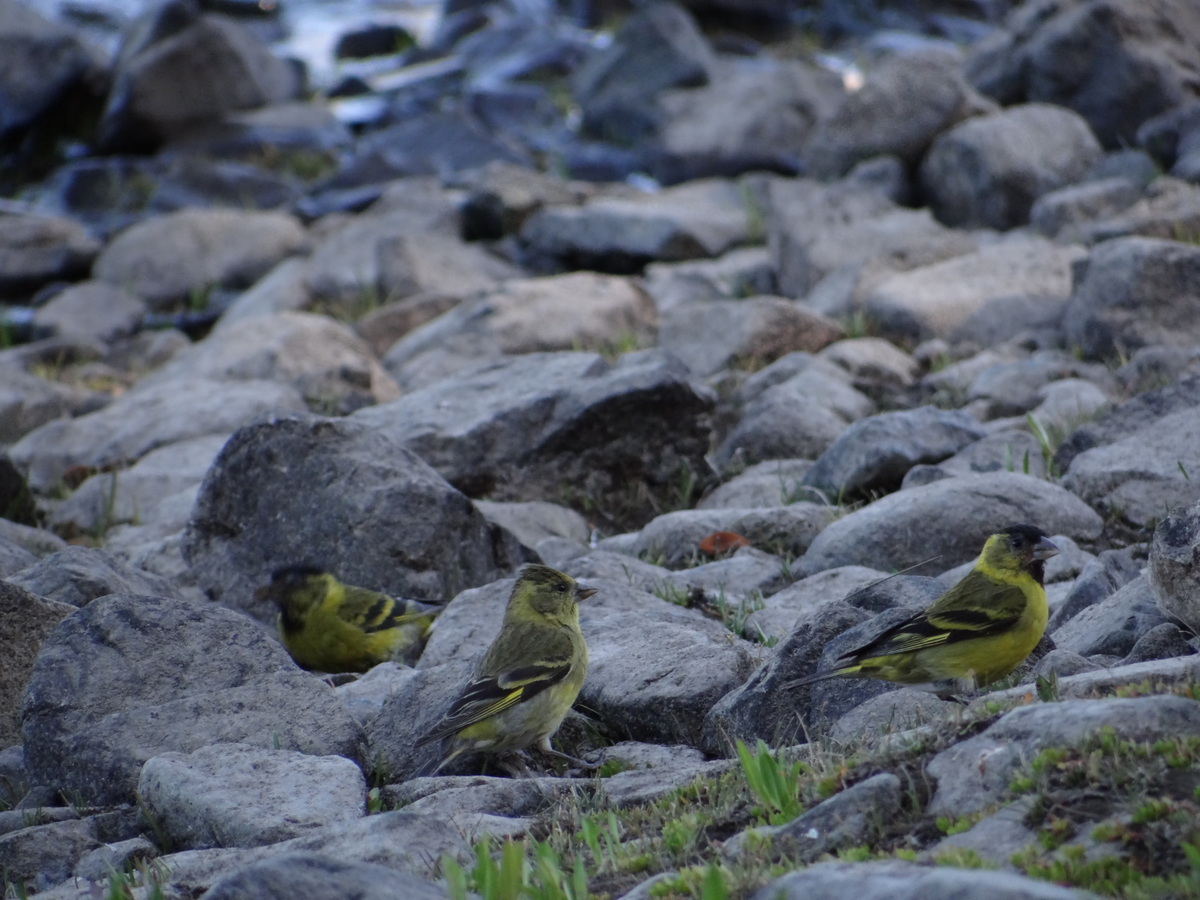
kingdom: Animalia
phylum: Chordata
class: Aves
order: Passeriformes
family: Fringillidae
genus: Spinus
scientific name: Spinus barbatus
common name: Black-chinned siskin
